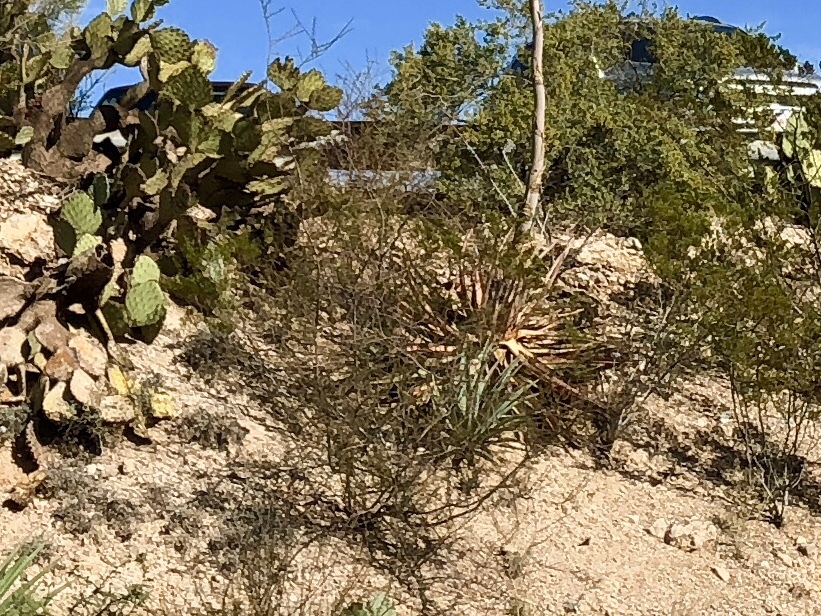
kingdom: Plantae
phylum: Tracheophyta
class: Magnoliopsida
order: Zygophyllales
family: Zygophyllaceae
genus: Larrea
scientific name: Larrea tridentata
